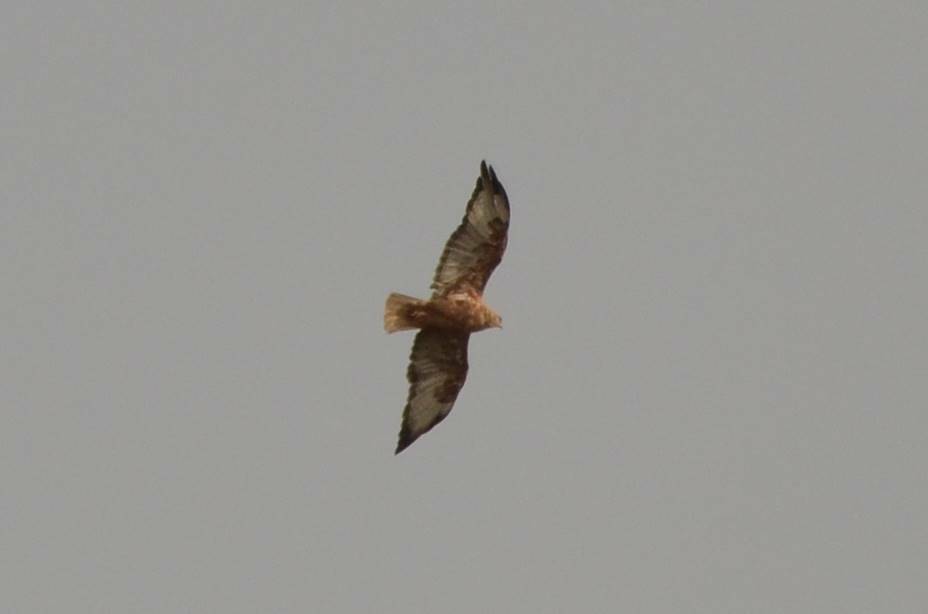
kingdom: Animalia
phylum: Chordata
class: Aves
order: Accipitriformes
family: Accipitridae
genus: Buteo
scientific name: Buteo rufinus
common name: Long-legged buzzard
